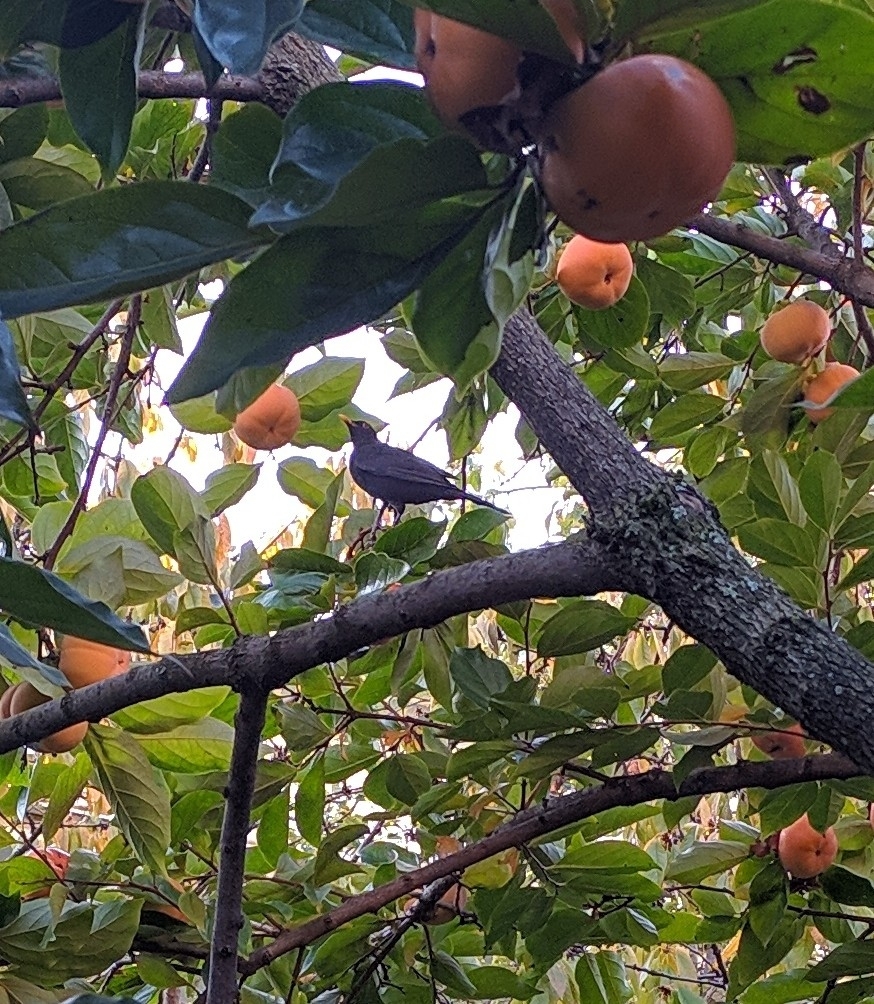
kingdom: Animalia
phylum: Chordata
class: Aves
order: Passeriformes
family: Turdidae
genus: Turdus
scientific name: Turdus merula
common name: Common blackbird
